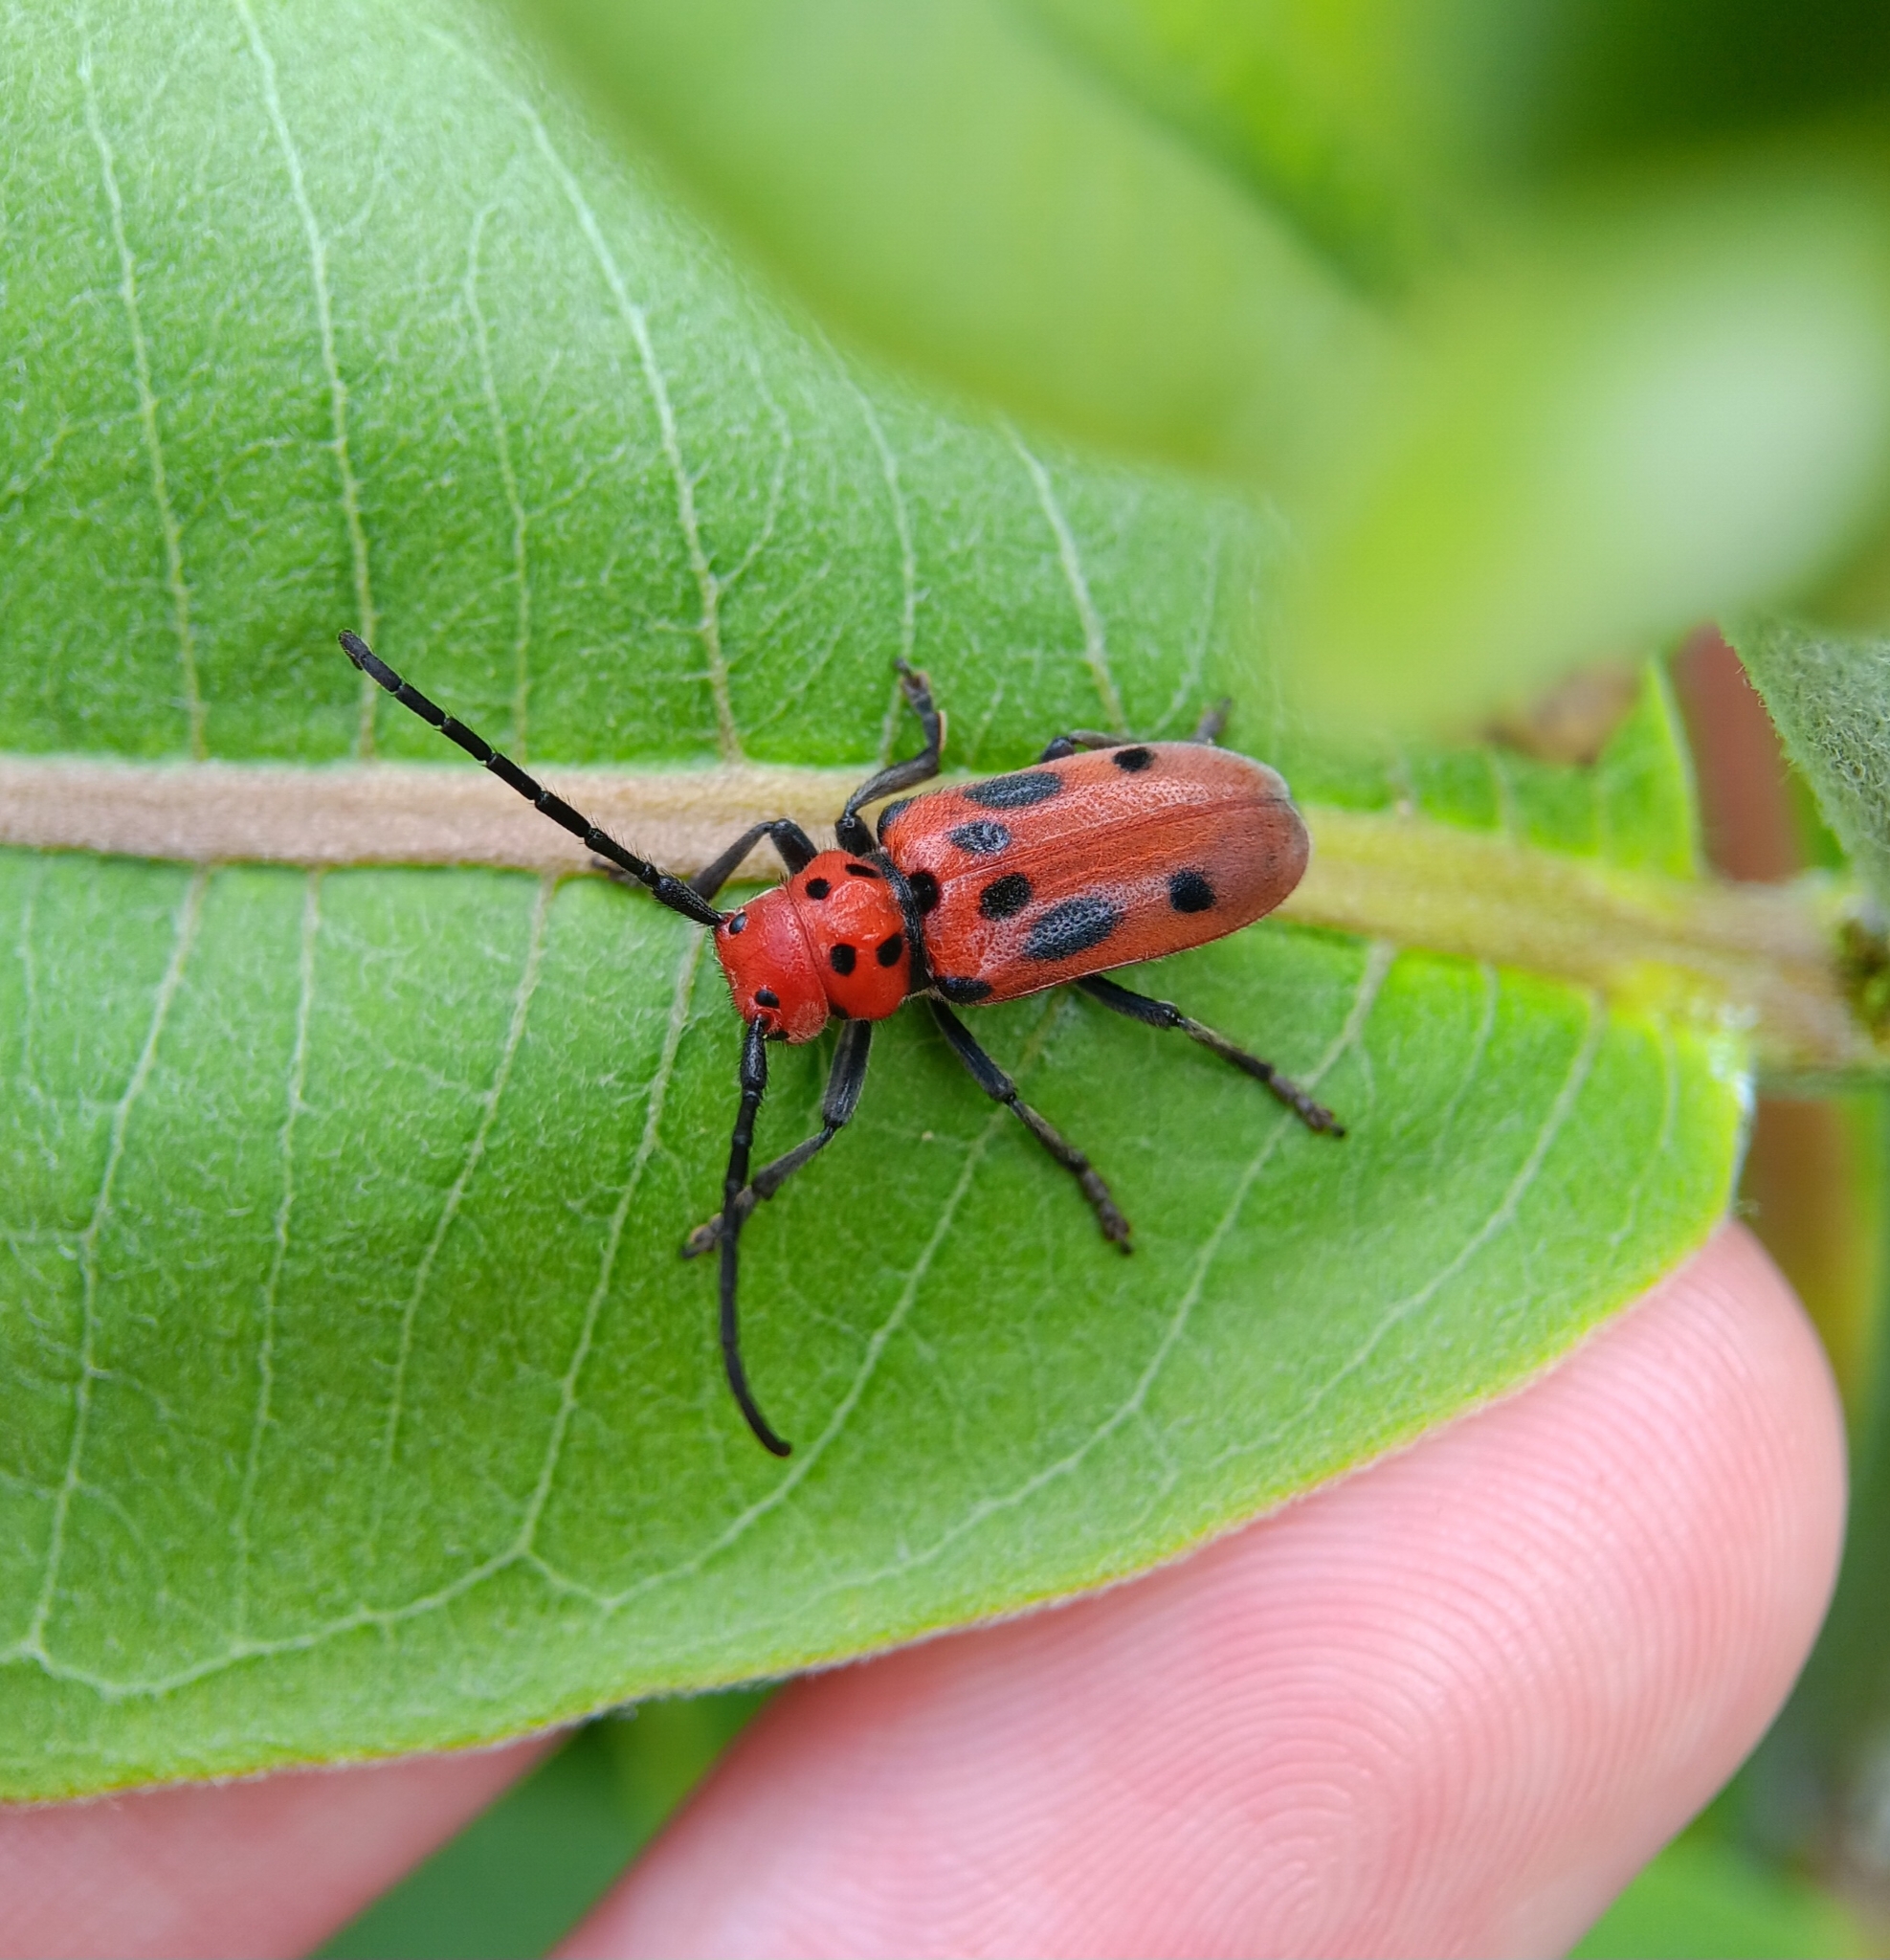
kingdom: Animalia
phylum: Arthropoda
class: Insecta
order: Coleoptera
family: Cerambycidae
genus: Tetraopes
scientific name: Tetraopes tetrophthalmus
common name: Red milkweed beetle
